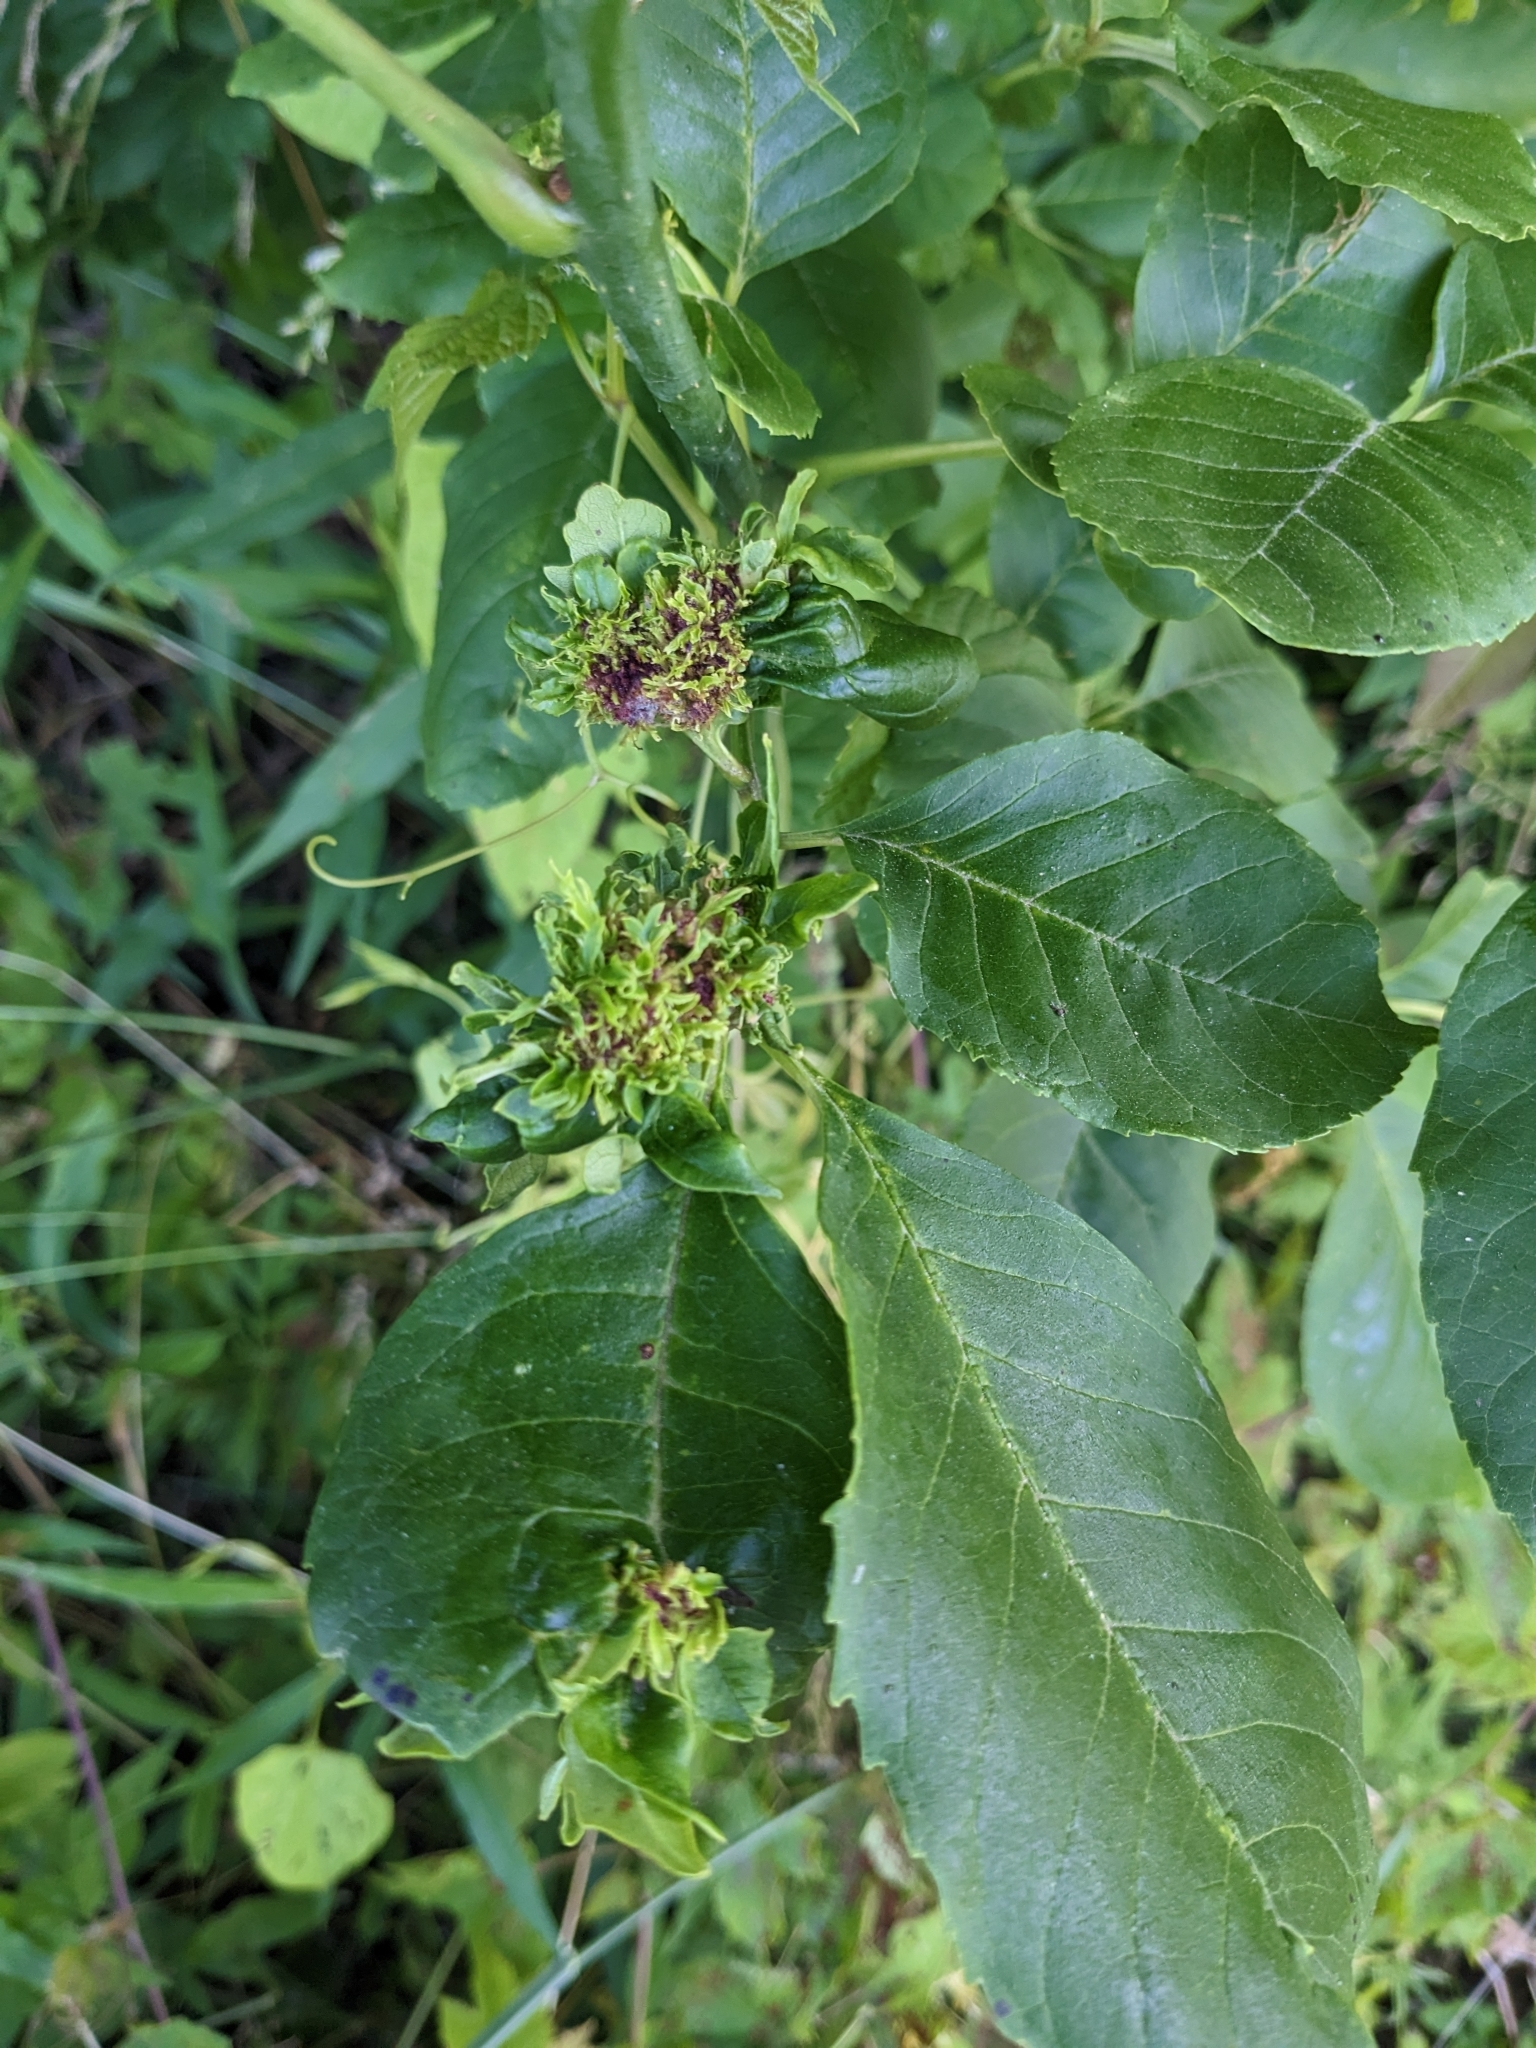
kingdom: Animalia
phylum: Arthropoda
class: Arachnida
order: Trombidiformes
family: Eriophyidae
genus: Aceria
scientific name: Aceria fraxiniflora
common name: Ash flower gall mite
